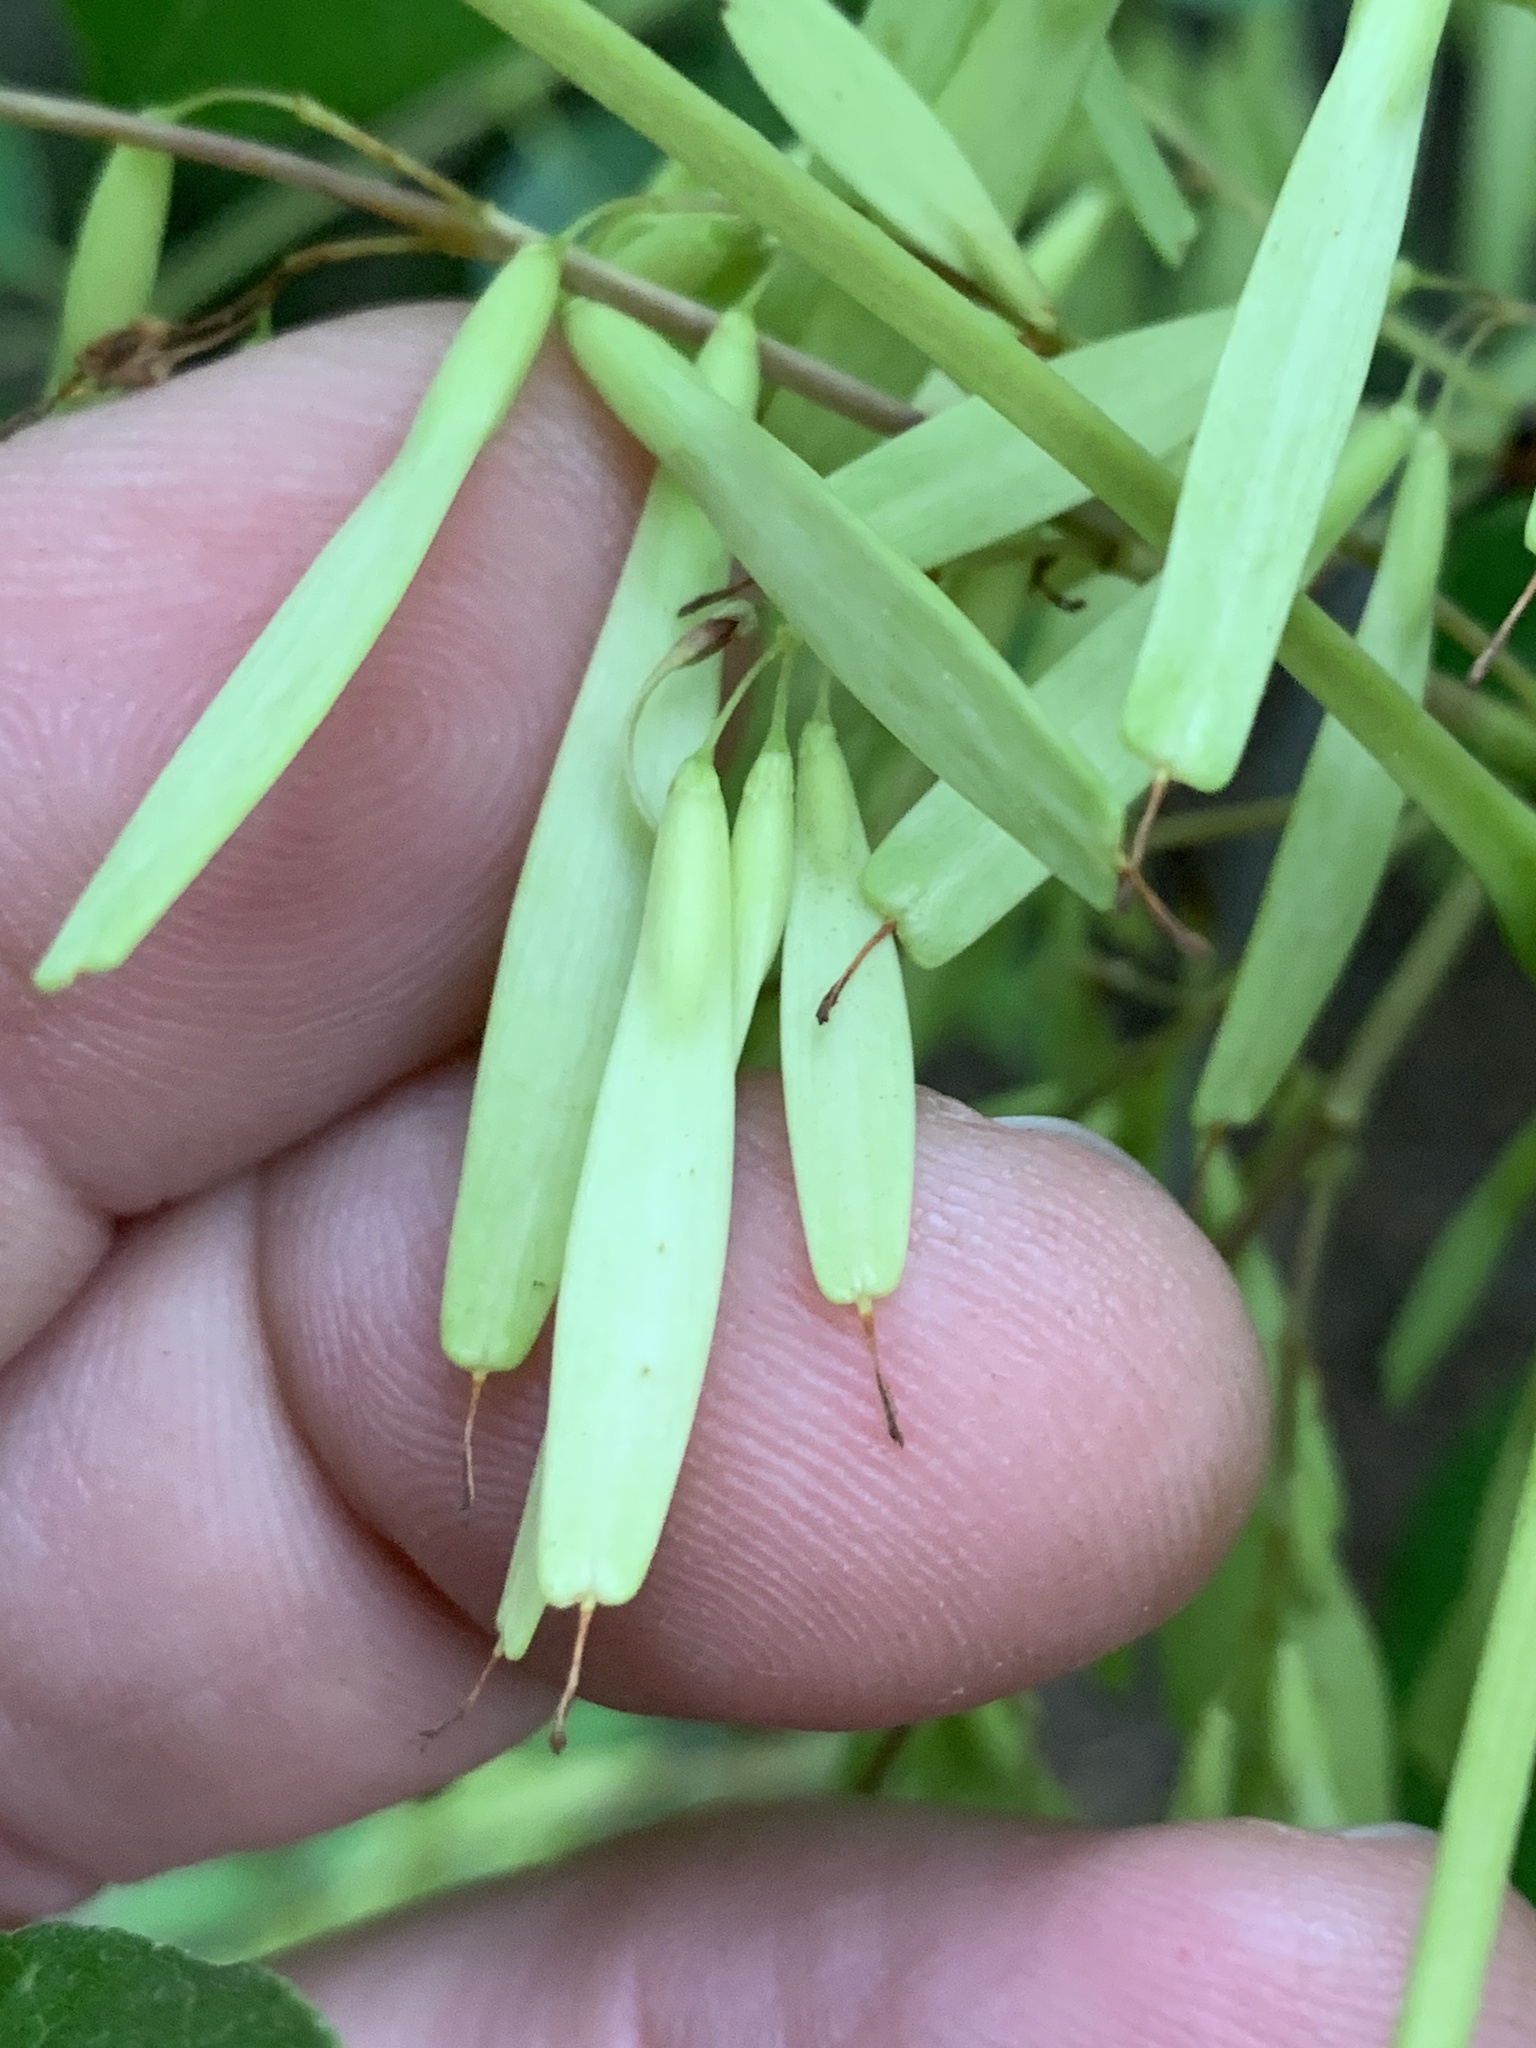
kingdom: Plantae
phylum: Tracheophyta
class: Magnoliopsida
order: Lamiales
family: Oleaceae
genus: Fraxinus
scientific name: Fraxinus albicans
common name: Texas ash
